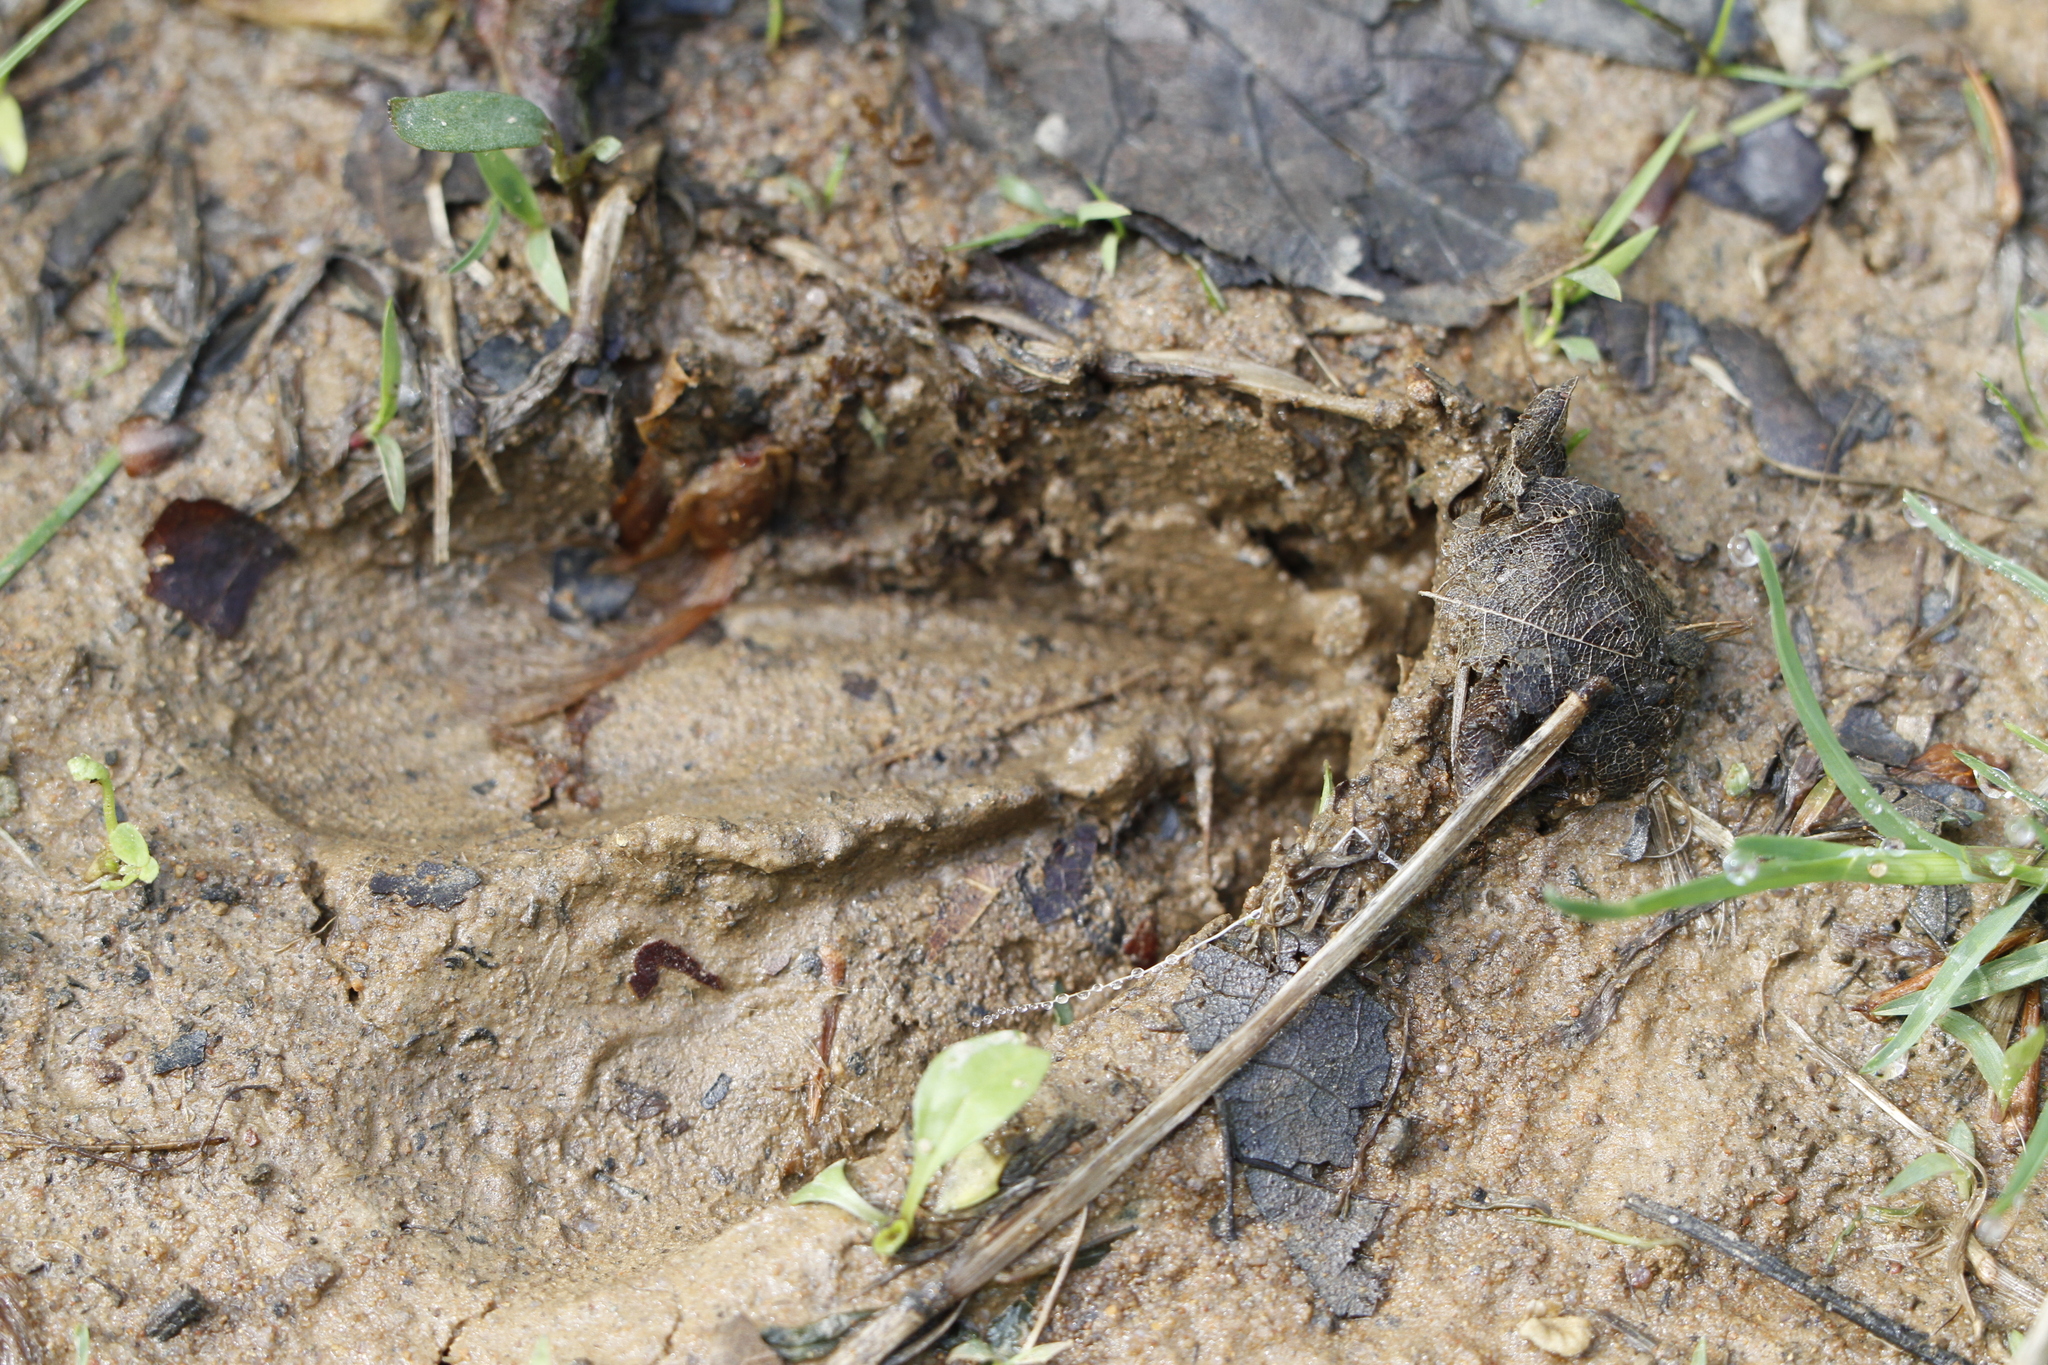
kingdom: Animalia
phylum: Chordata
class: Mammalia
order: Artiodactyla
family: Cervidae
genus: Odocoileus
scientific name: Odocoileus virginianus
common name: White-tailed deer
